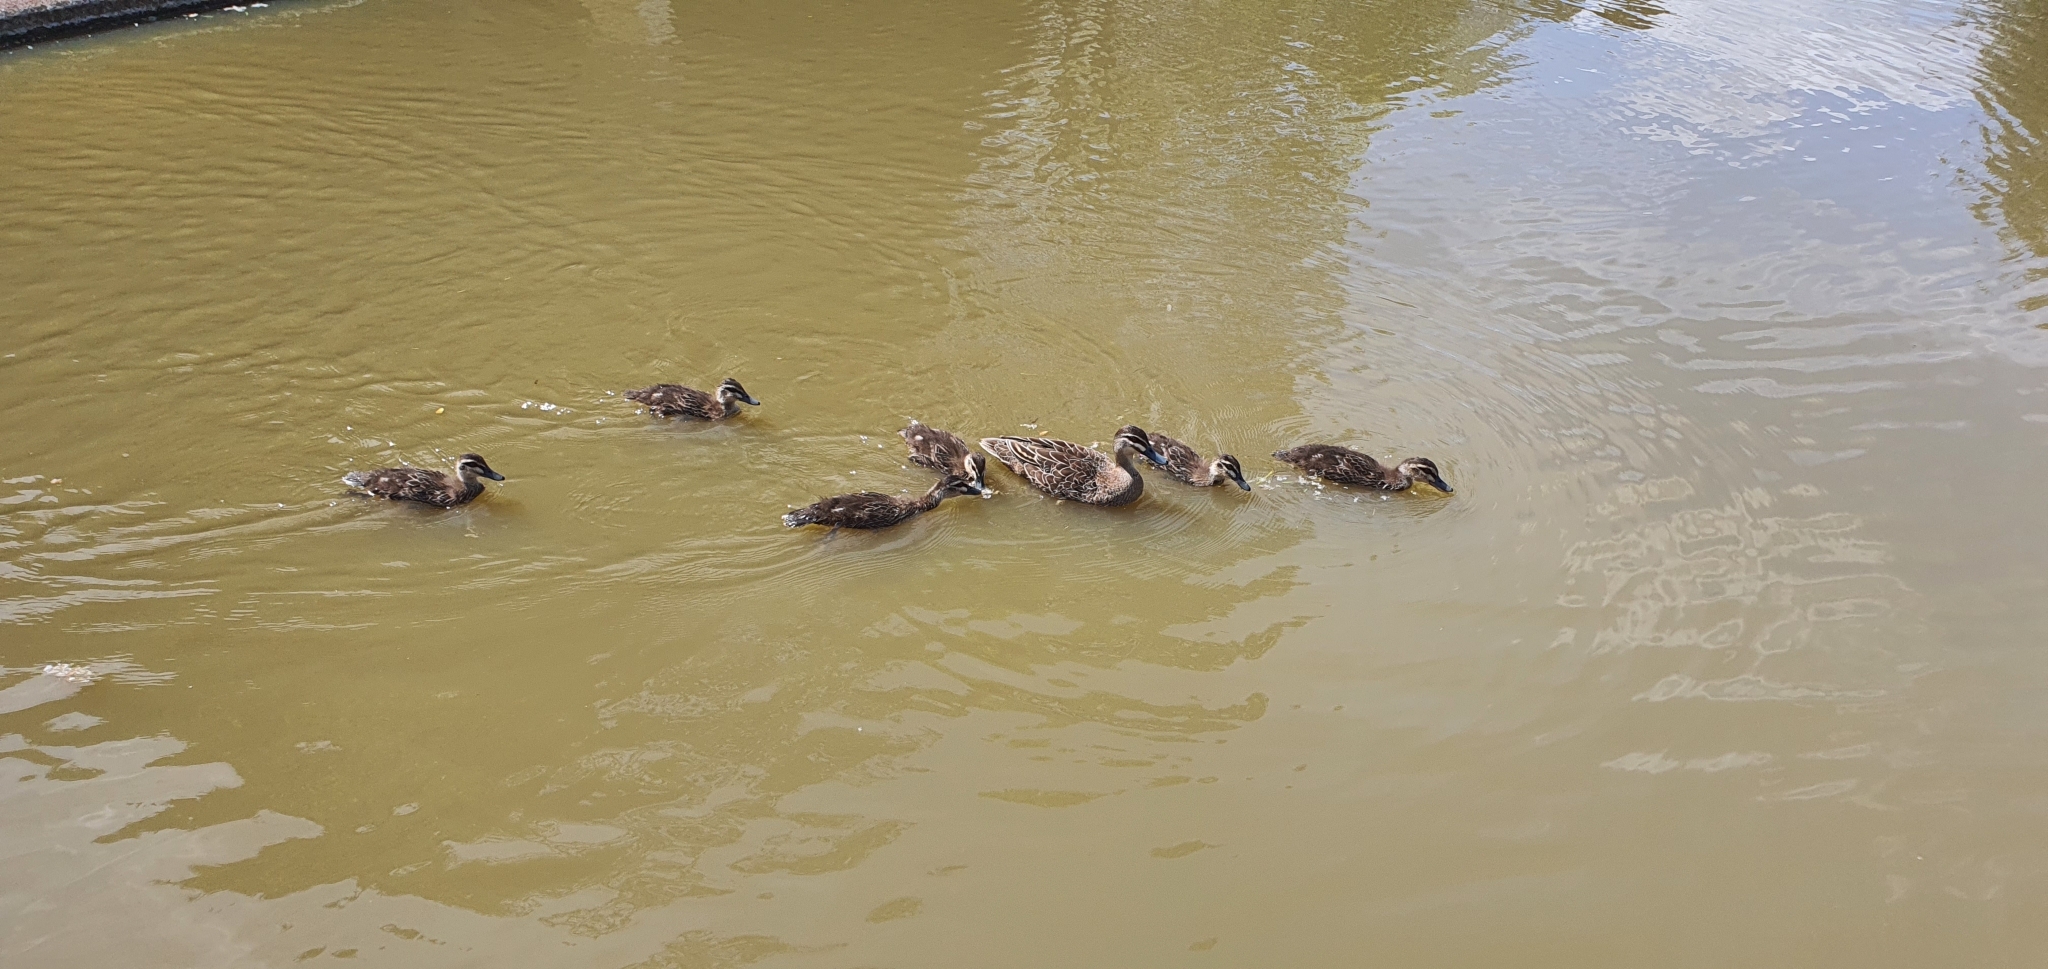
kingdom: Animalia
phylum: Chordata
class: Aves
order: Anseriformes
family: Anatidae
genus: Anas
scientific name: Anas superciliosa
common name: Pacific black duck
